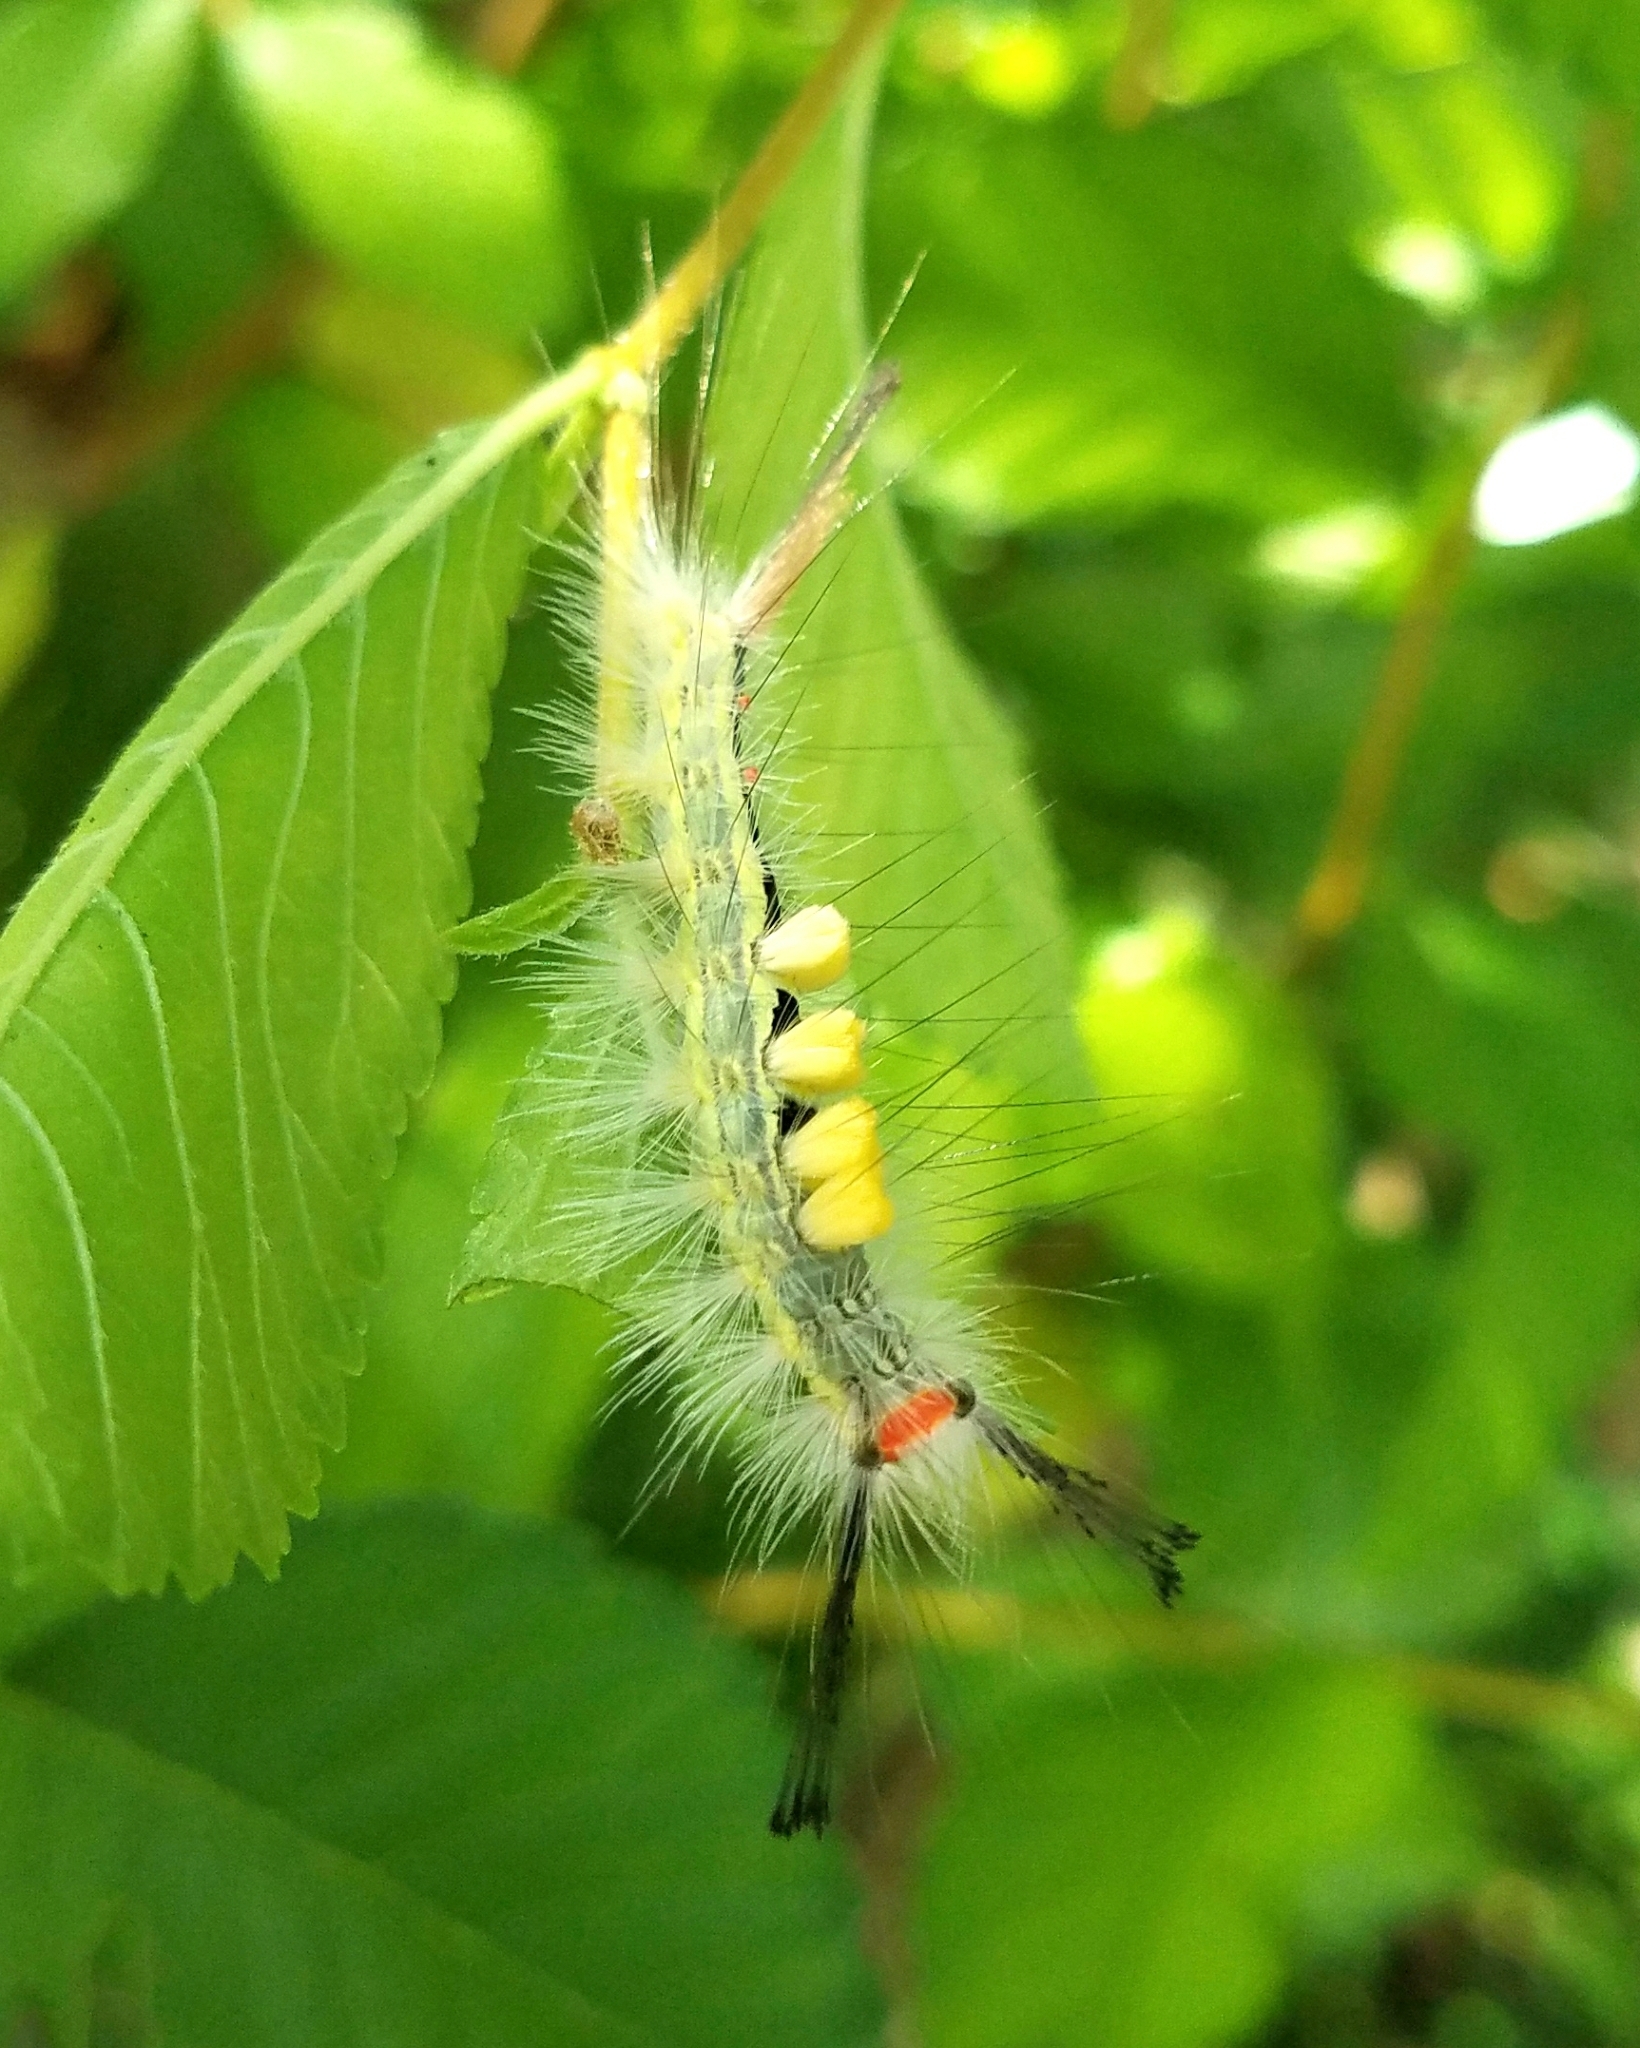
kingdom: Animalia
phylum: Arthropoda
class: Insecta
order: Lepidoptera
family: Erebidae
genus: Orgyia
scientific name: Orgyia leucostigma
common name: White-marked tussock moth
